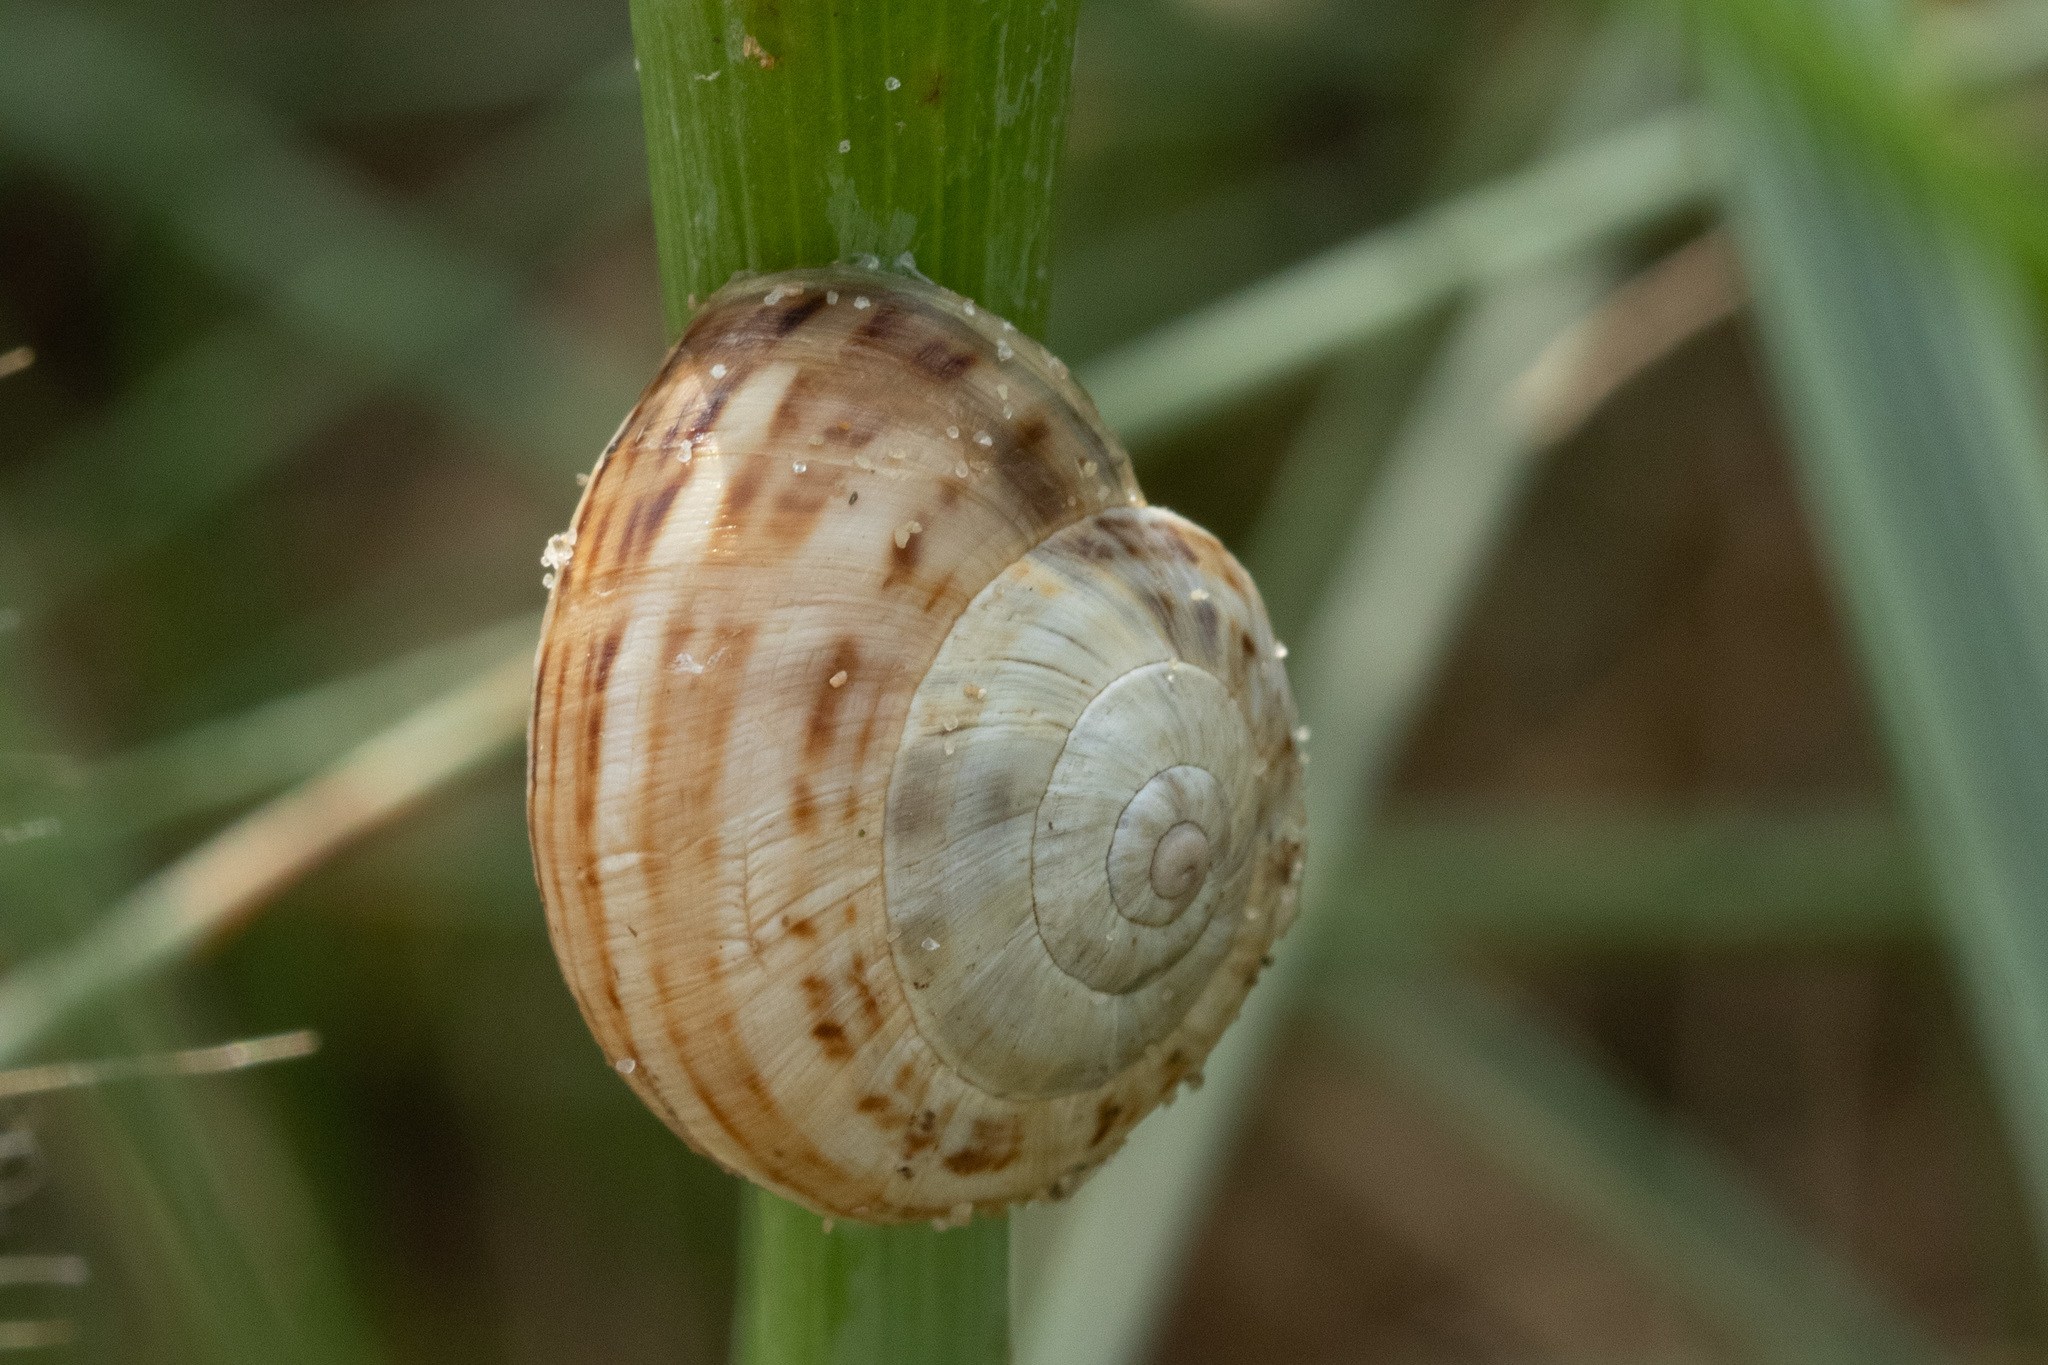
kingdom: Animalia
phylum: Mollusca
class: Gastropoda
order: Stylommatophora
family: Helicidae
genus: Theba
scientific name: Theba pisana
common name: White snail
